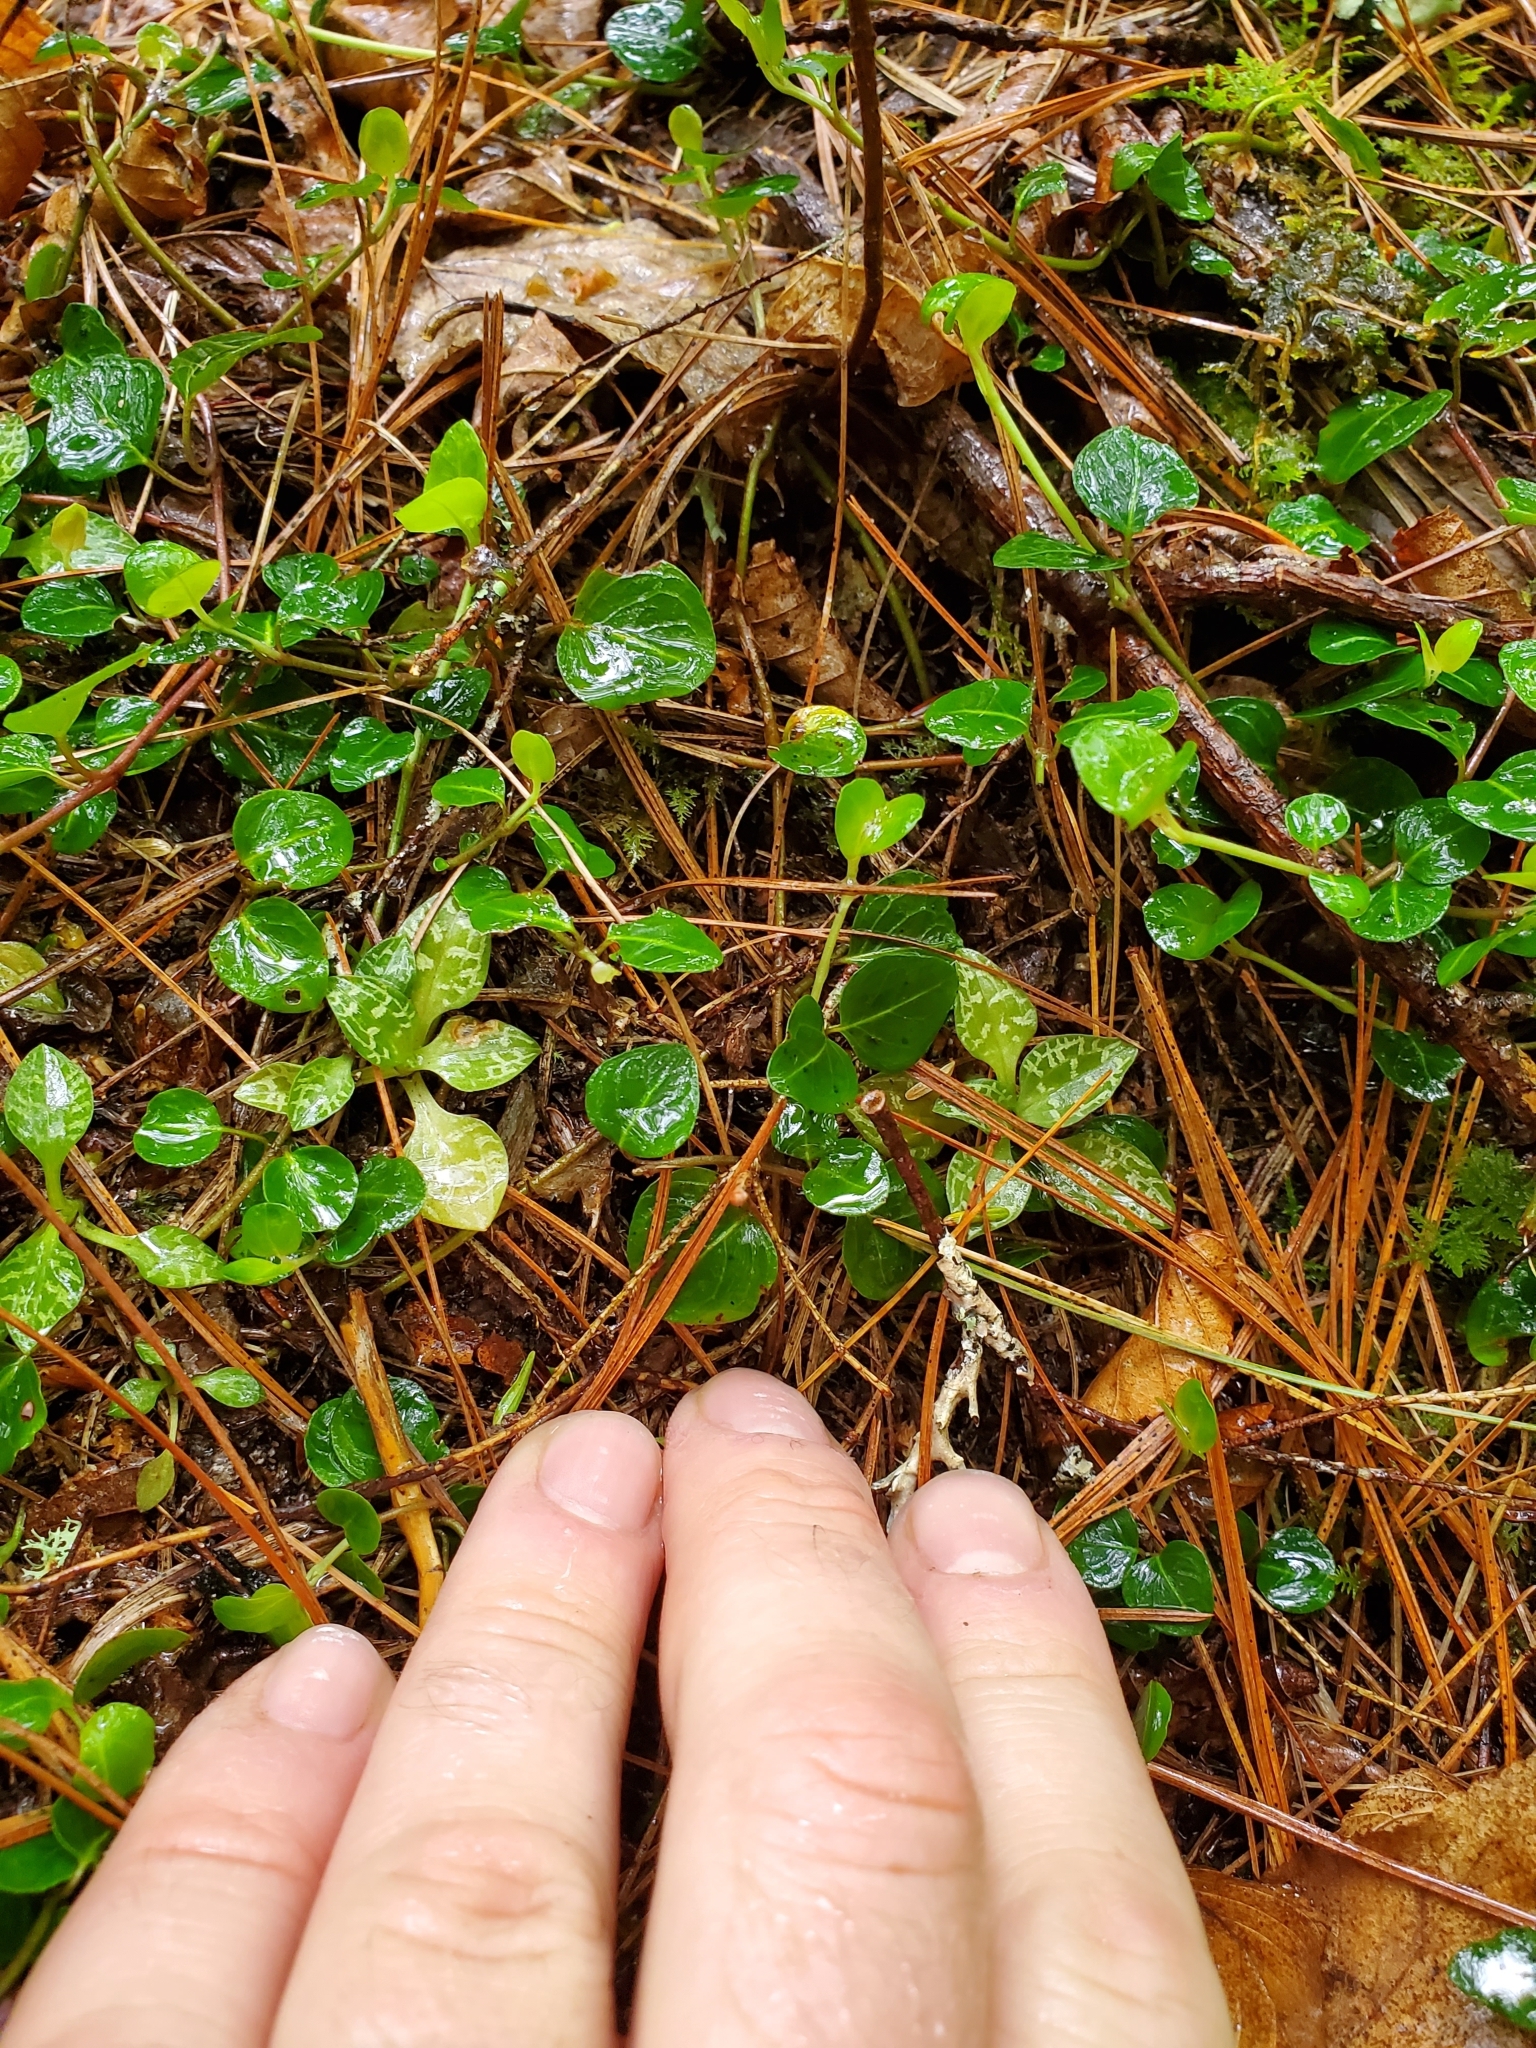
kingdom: Plantae
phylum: Tracheophyta
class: Liliopsida
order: Asparagales
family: Orchidaceae
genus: Goodyera
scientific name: Goodyera repens
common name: Creeping lady's-tresses
